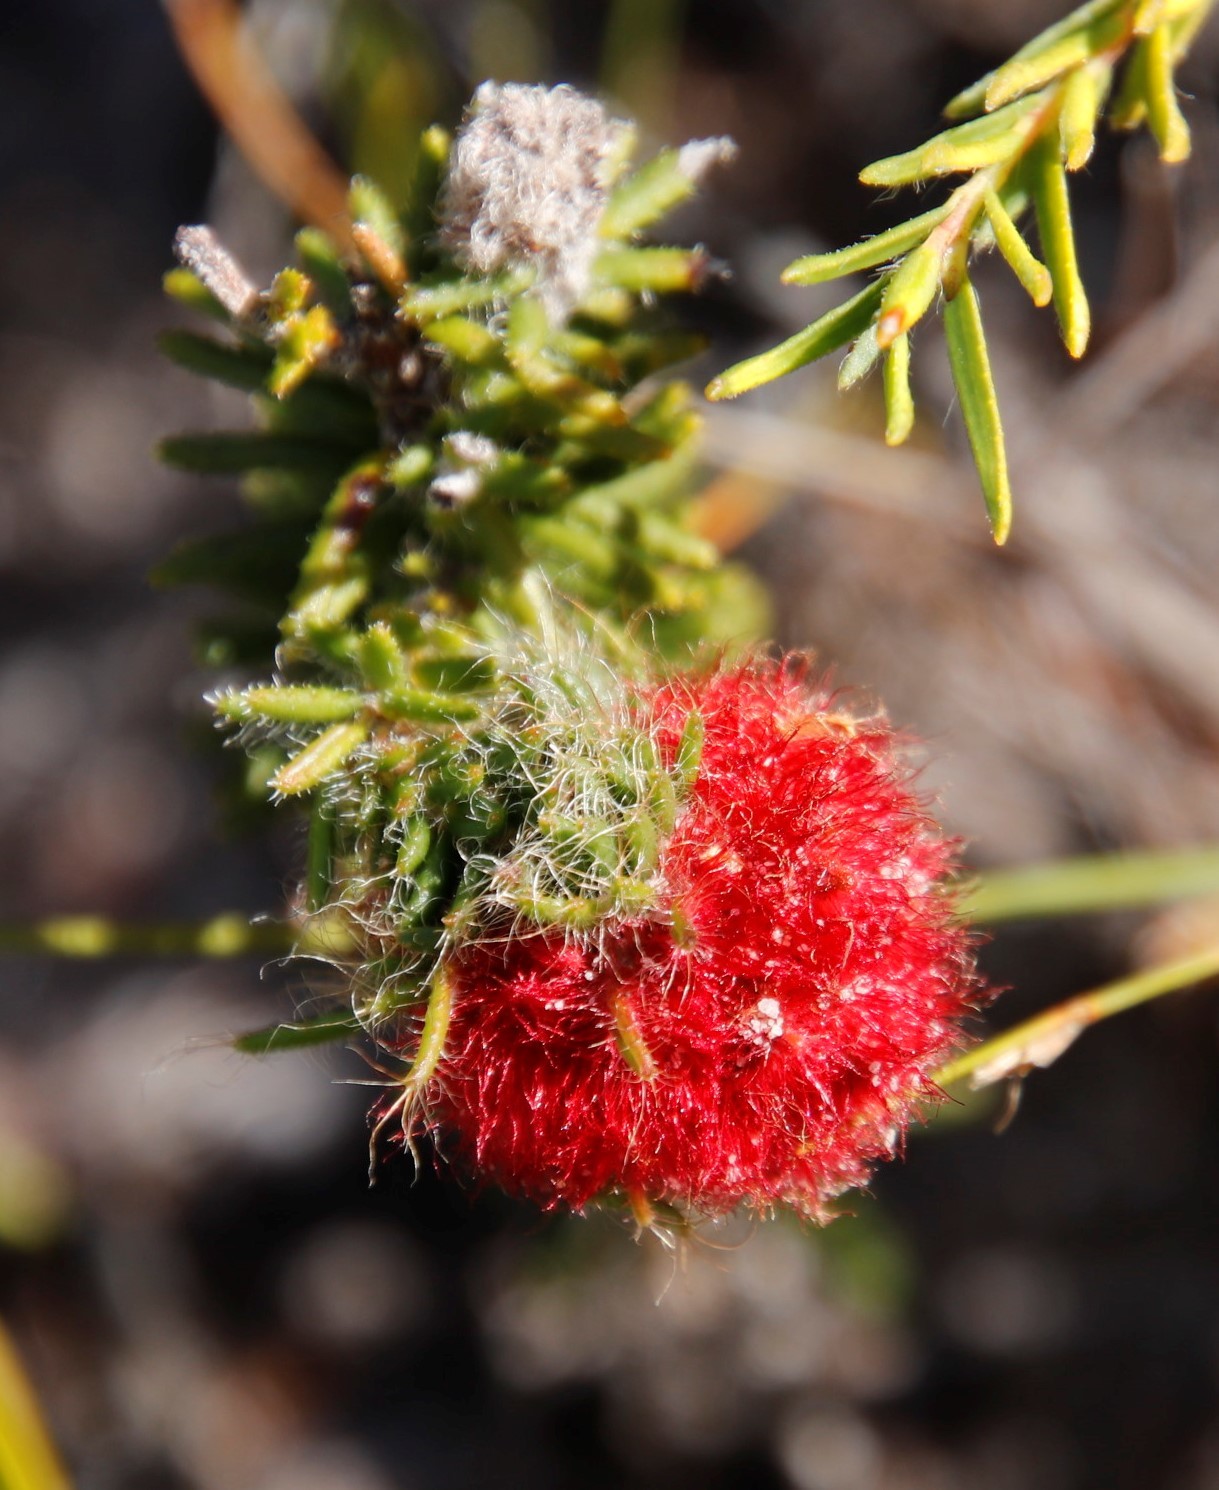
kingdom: Plantae
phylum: Tracheophyta
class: Magnoliopsida
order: Ericales
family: Ericaceae
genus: Erica
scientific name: Erica cerinthoides
